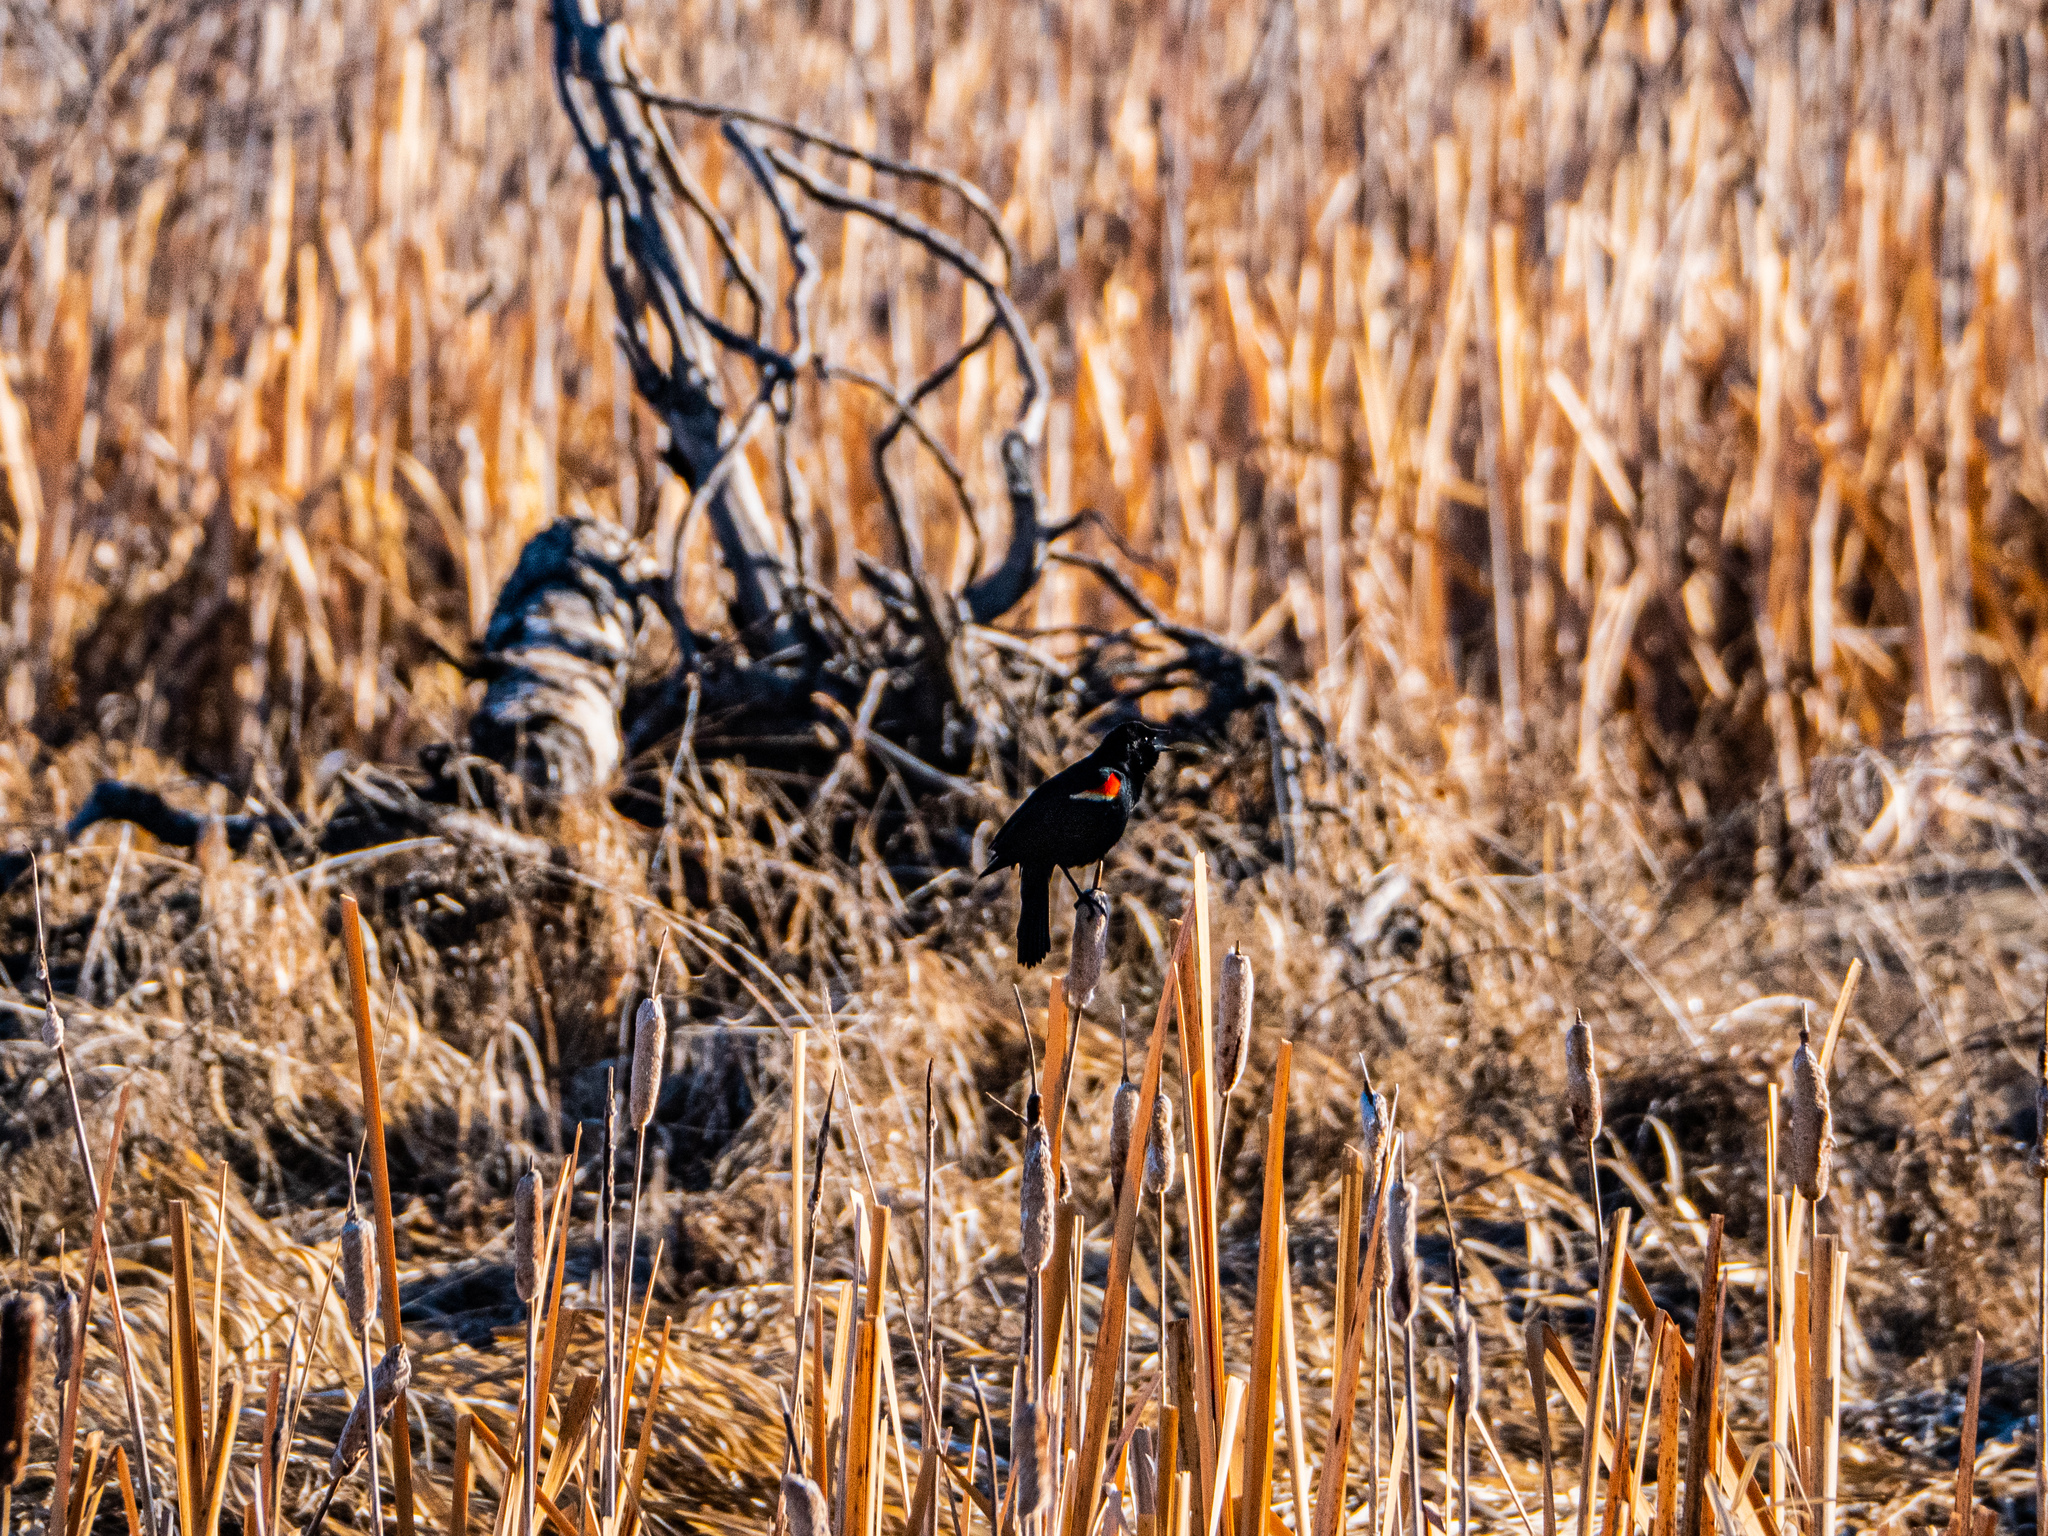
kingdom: Animalia
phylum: Chordata
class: Aves
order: Passeriformes
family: Icteridae
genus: Agelaius
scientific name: Agelaius phoeniceus
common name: Red-winged blackbird
